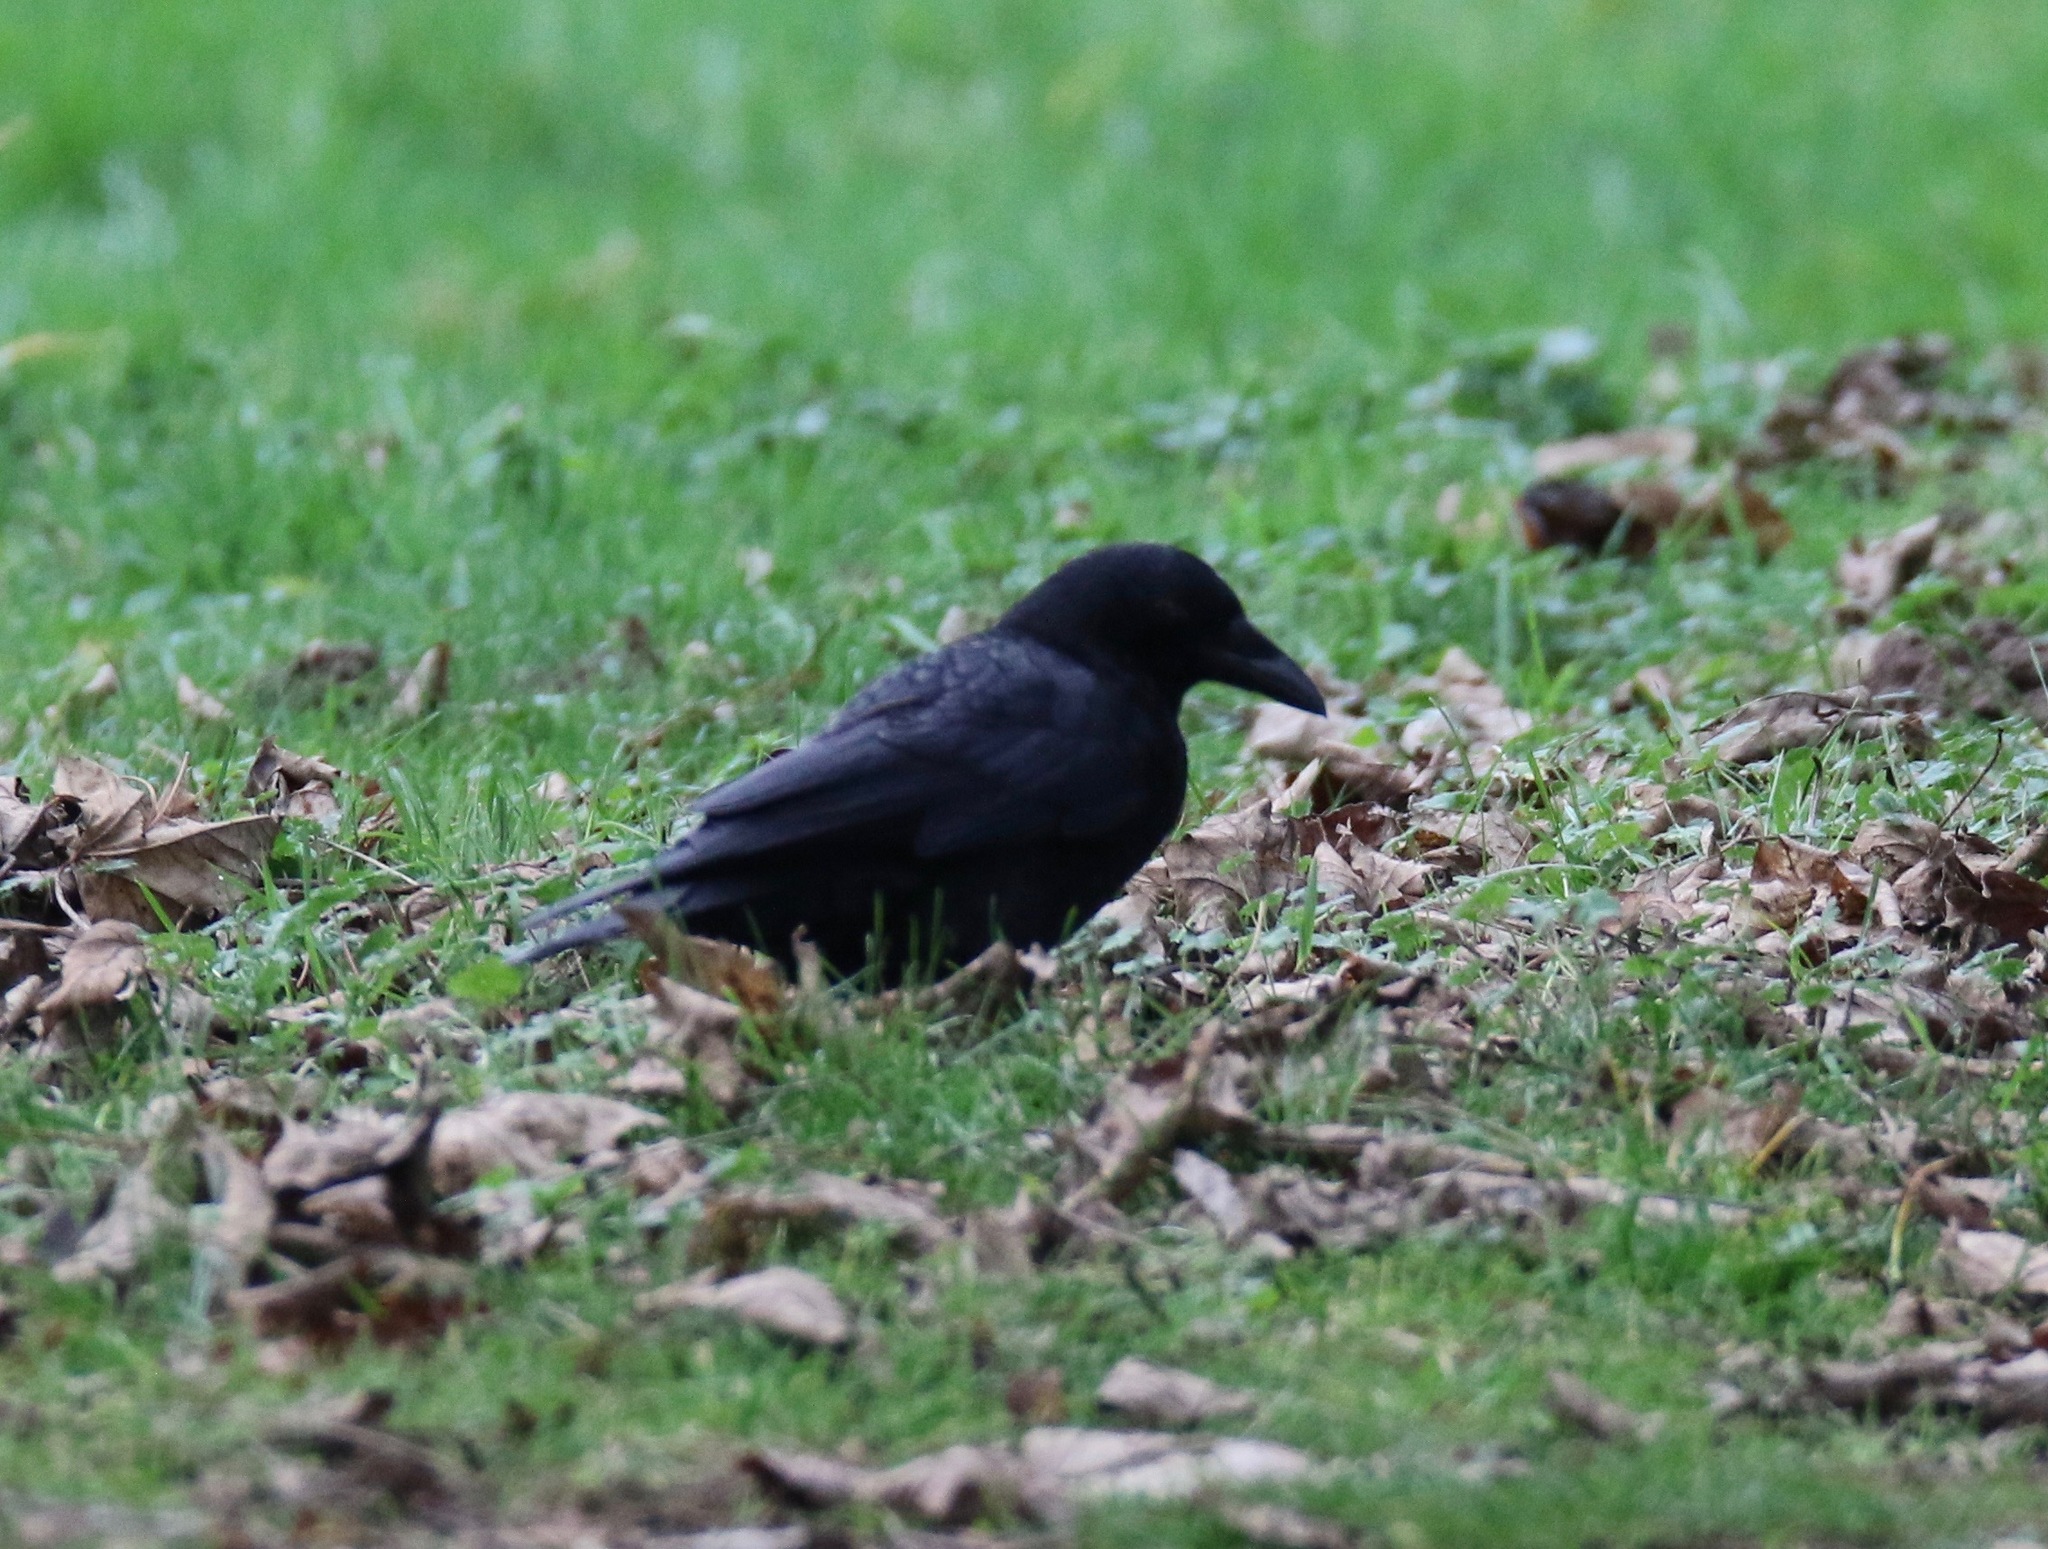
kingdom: Animalia
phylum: Chordata
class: Aves
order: Passeriformes
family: Corvidae
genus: Corvus
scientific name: Corvus corone
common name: Carrion crow
